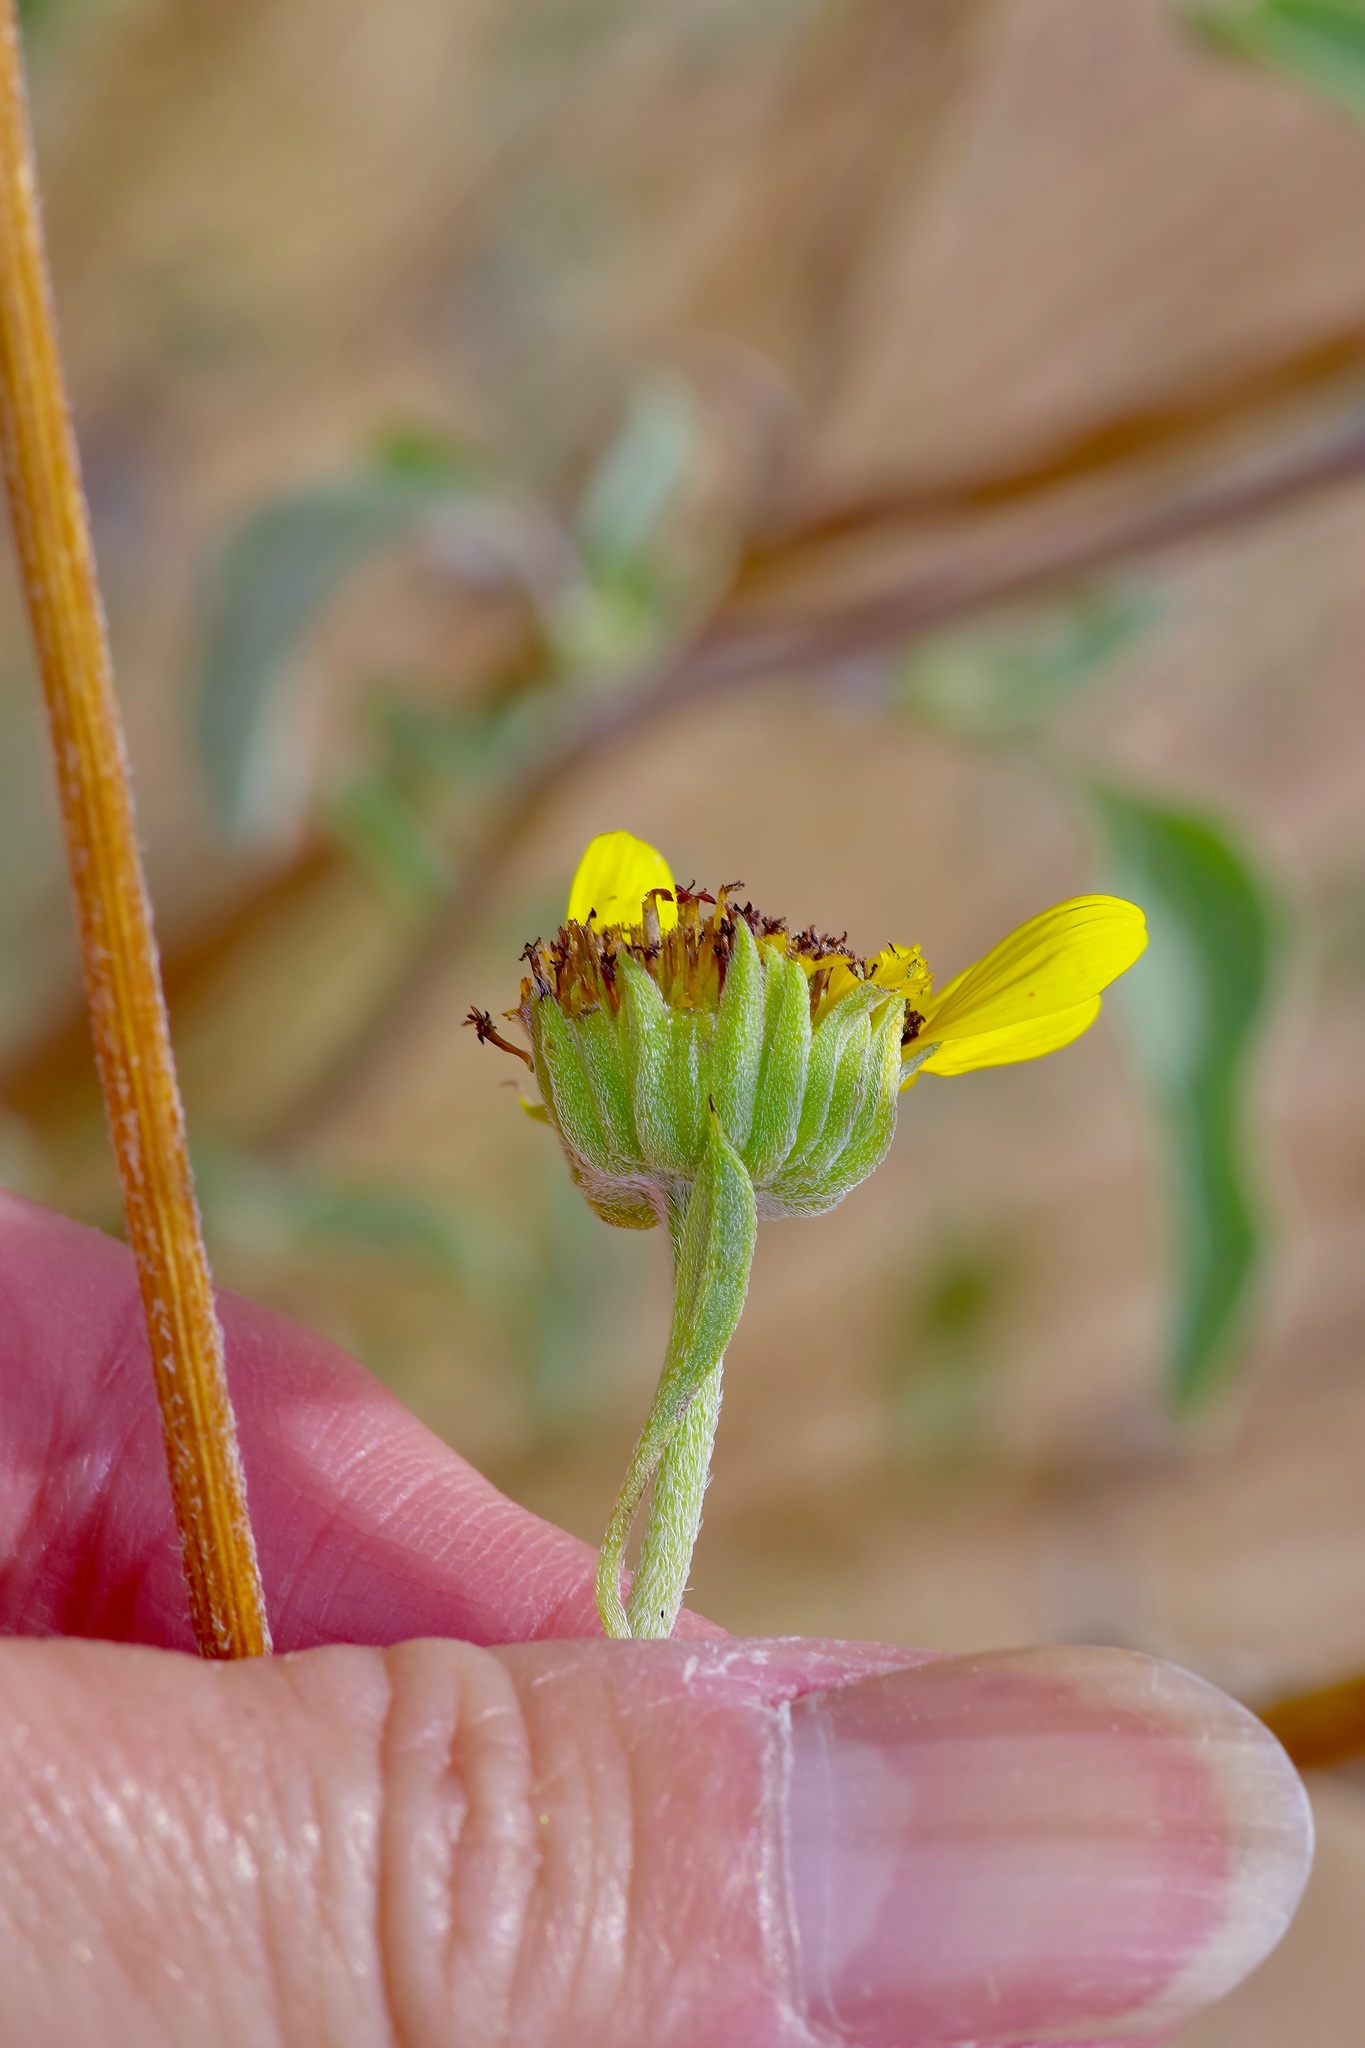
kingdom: Plantae
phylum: Tracheophyta
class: Magnoliopsida
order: Asterales
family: Asteraceae
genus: Helianthus
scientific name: Helianthus petiolaris
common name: Lesser sunflower
